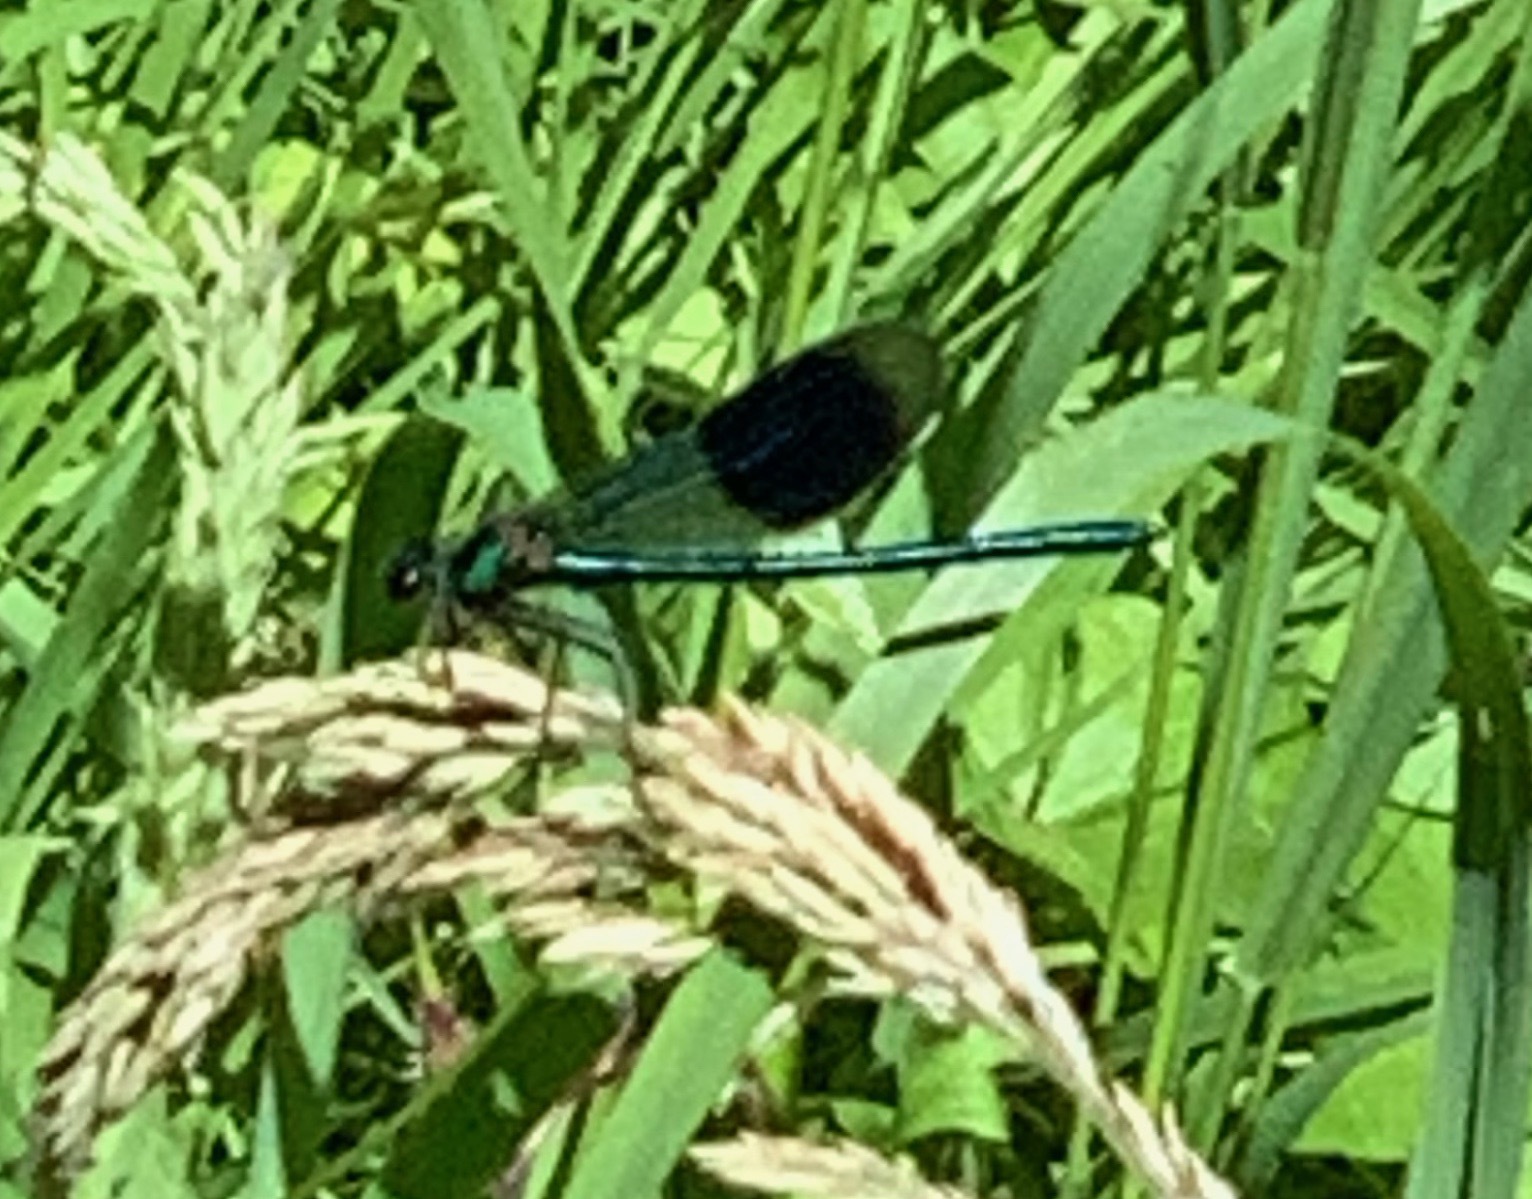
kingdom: Animalia
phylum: Arthropoda
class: Insecta
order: Odonata
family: Calopterygidae
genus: Calopteryx
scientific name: Calopteryx splendens
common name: Banded demoiselle
